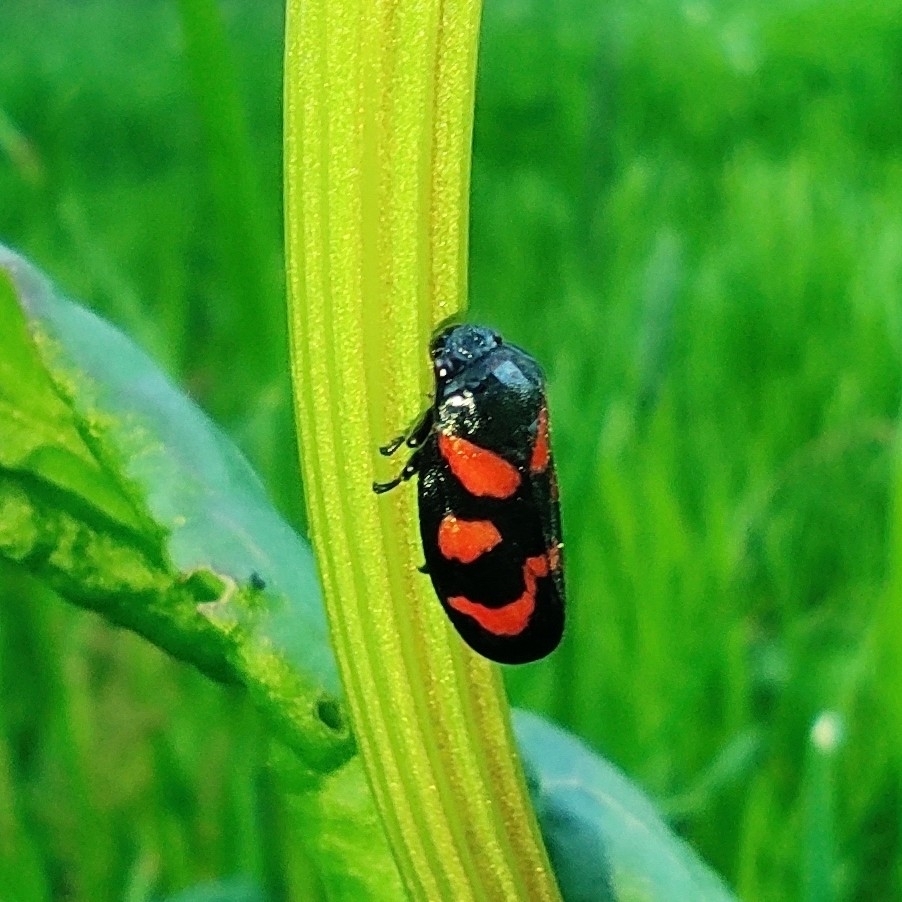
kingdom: Animalia
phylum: Arthropoda
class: Insecta
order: Hemiptera
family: Cercopidae
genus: Cercopis
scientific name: Cercopis vulnerata
